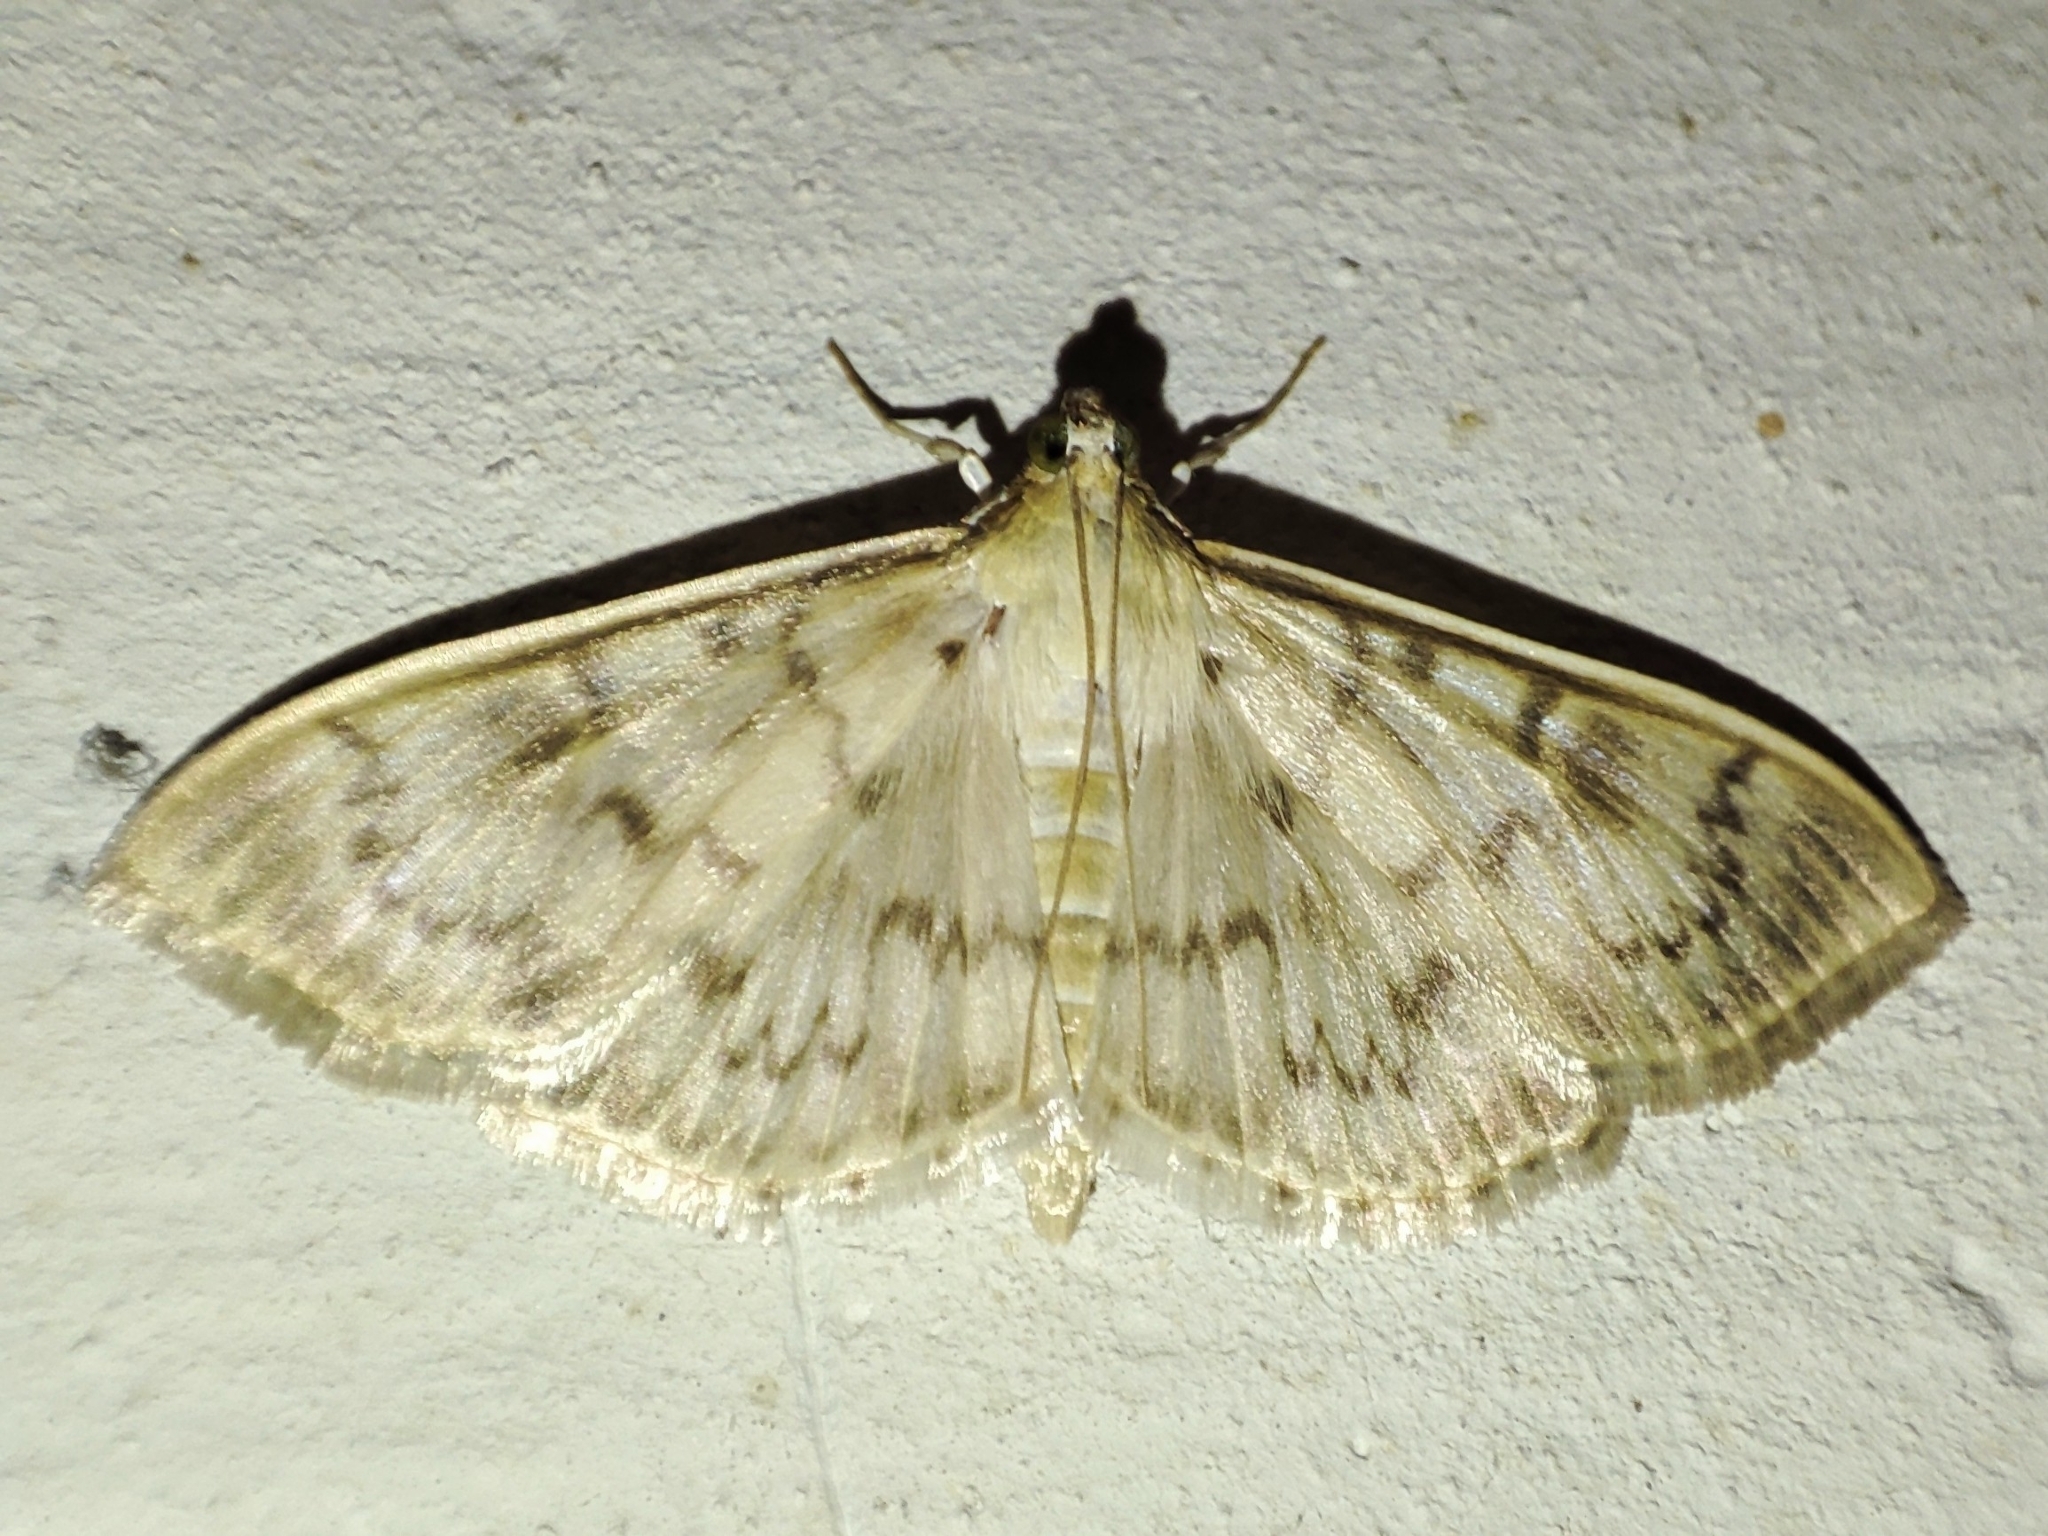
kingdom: Animalia
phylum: Arthropoda
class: Insecta
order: Lepidoptera
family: Crambidae
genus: Patania
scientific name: Patania ruralis
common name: Mother of pearl
